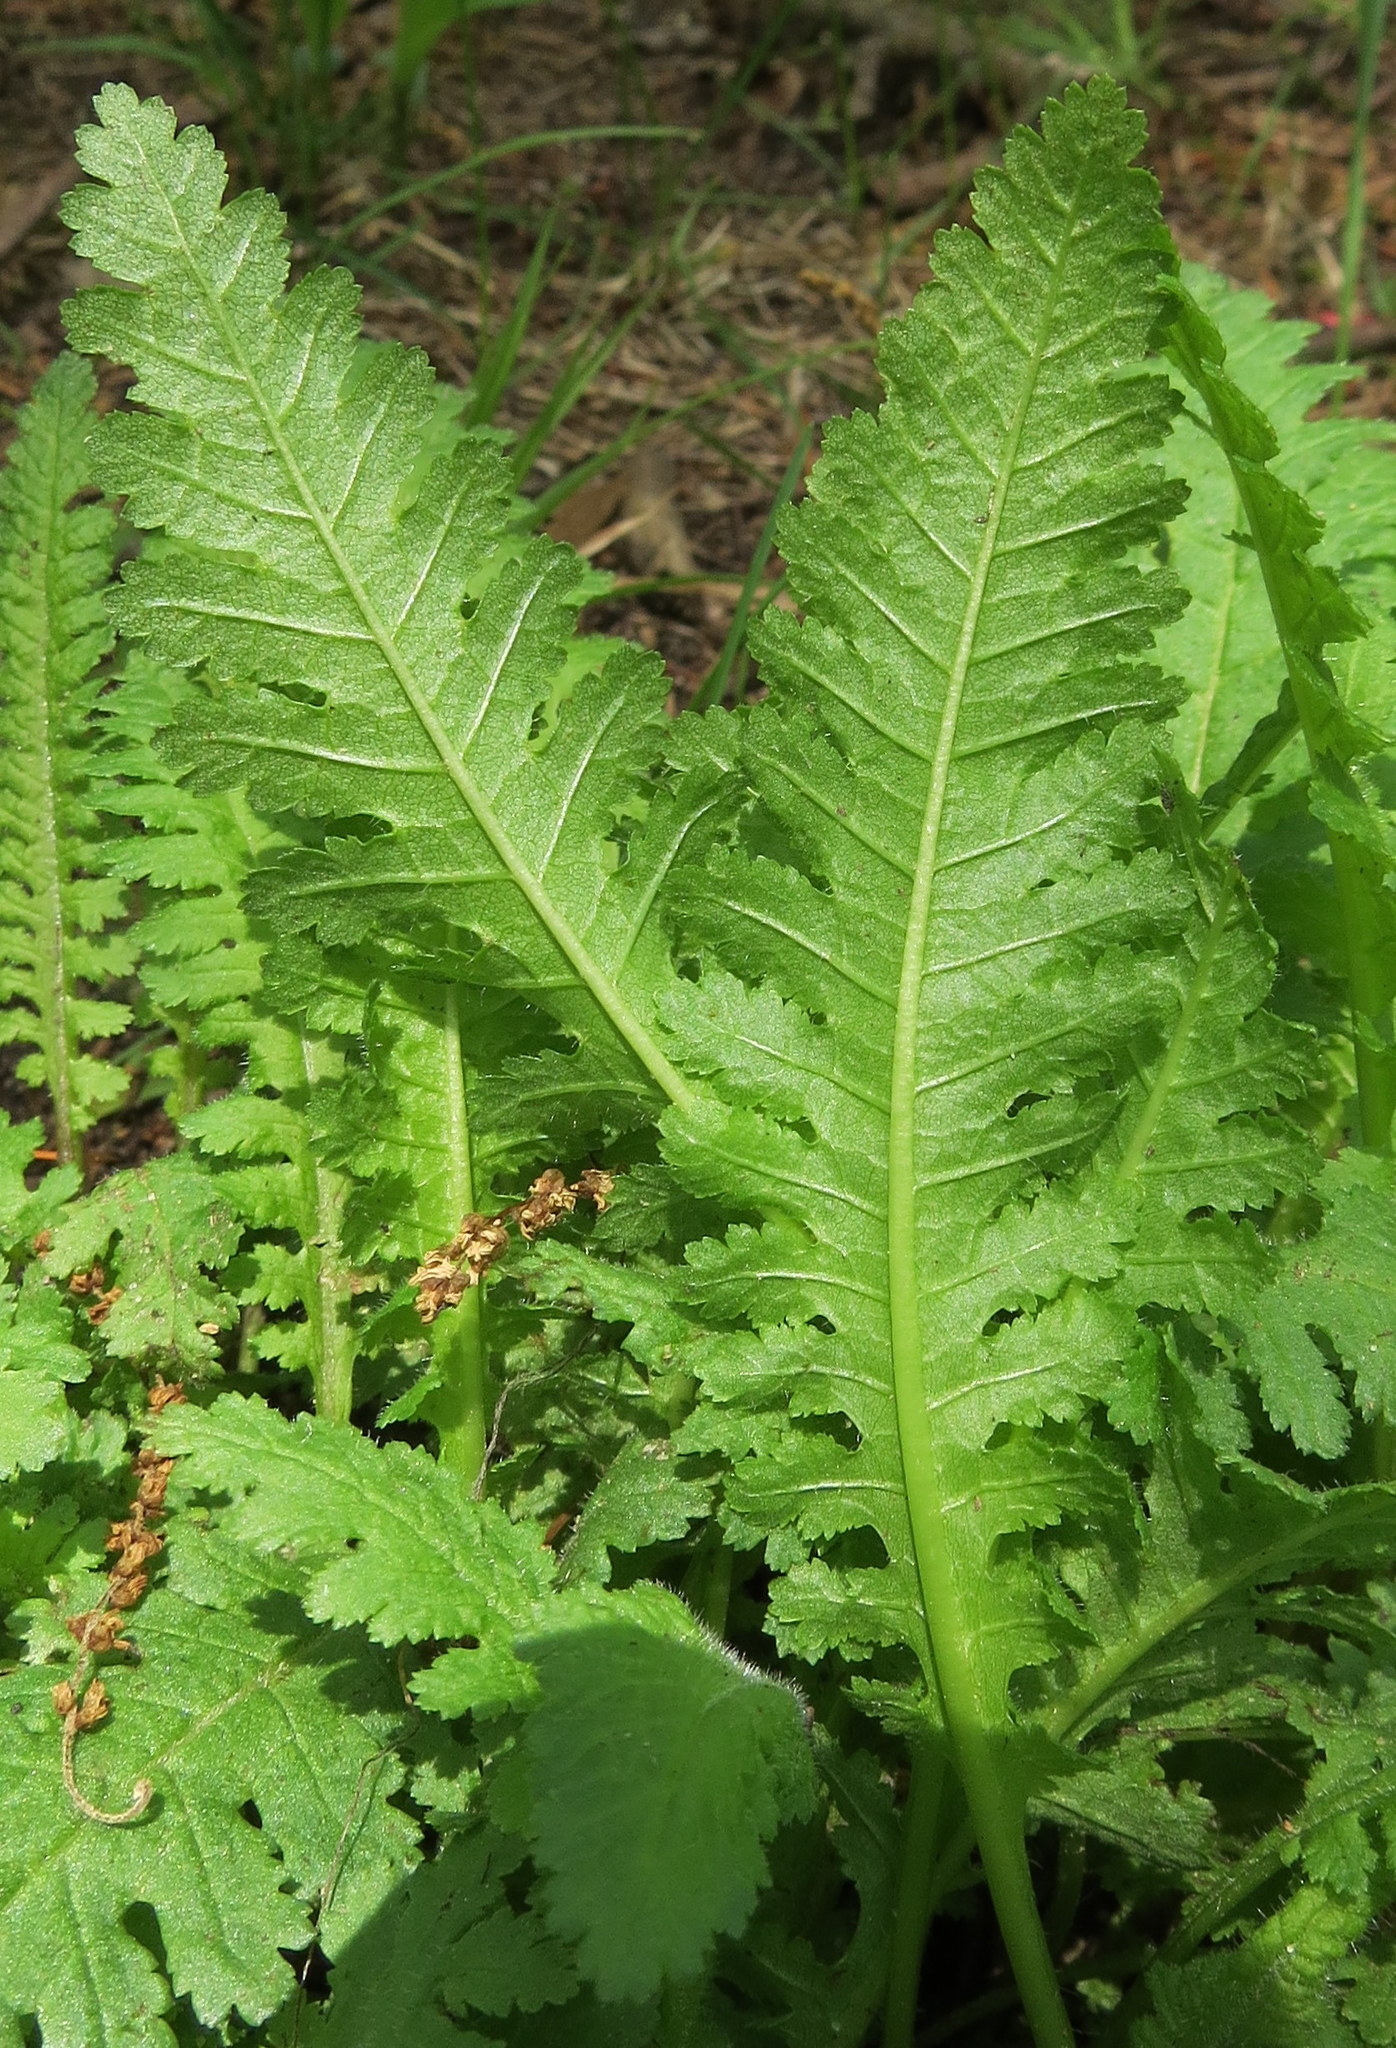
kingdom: Plantae
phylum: Tracheophyta
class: Magnoliopsida
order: Lamiales
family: Orobanchaceae
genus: Pedicularis
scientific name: Pedicularis canadensis
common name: Early lousewort
